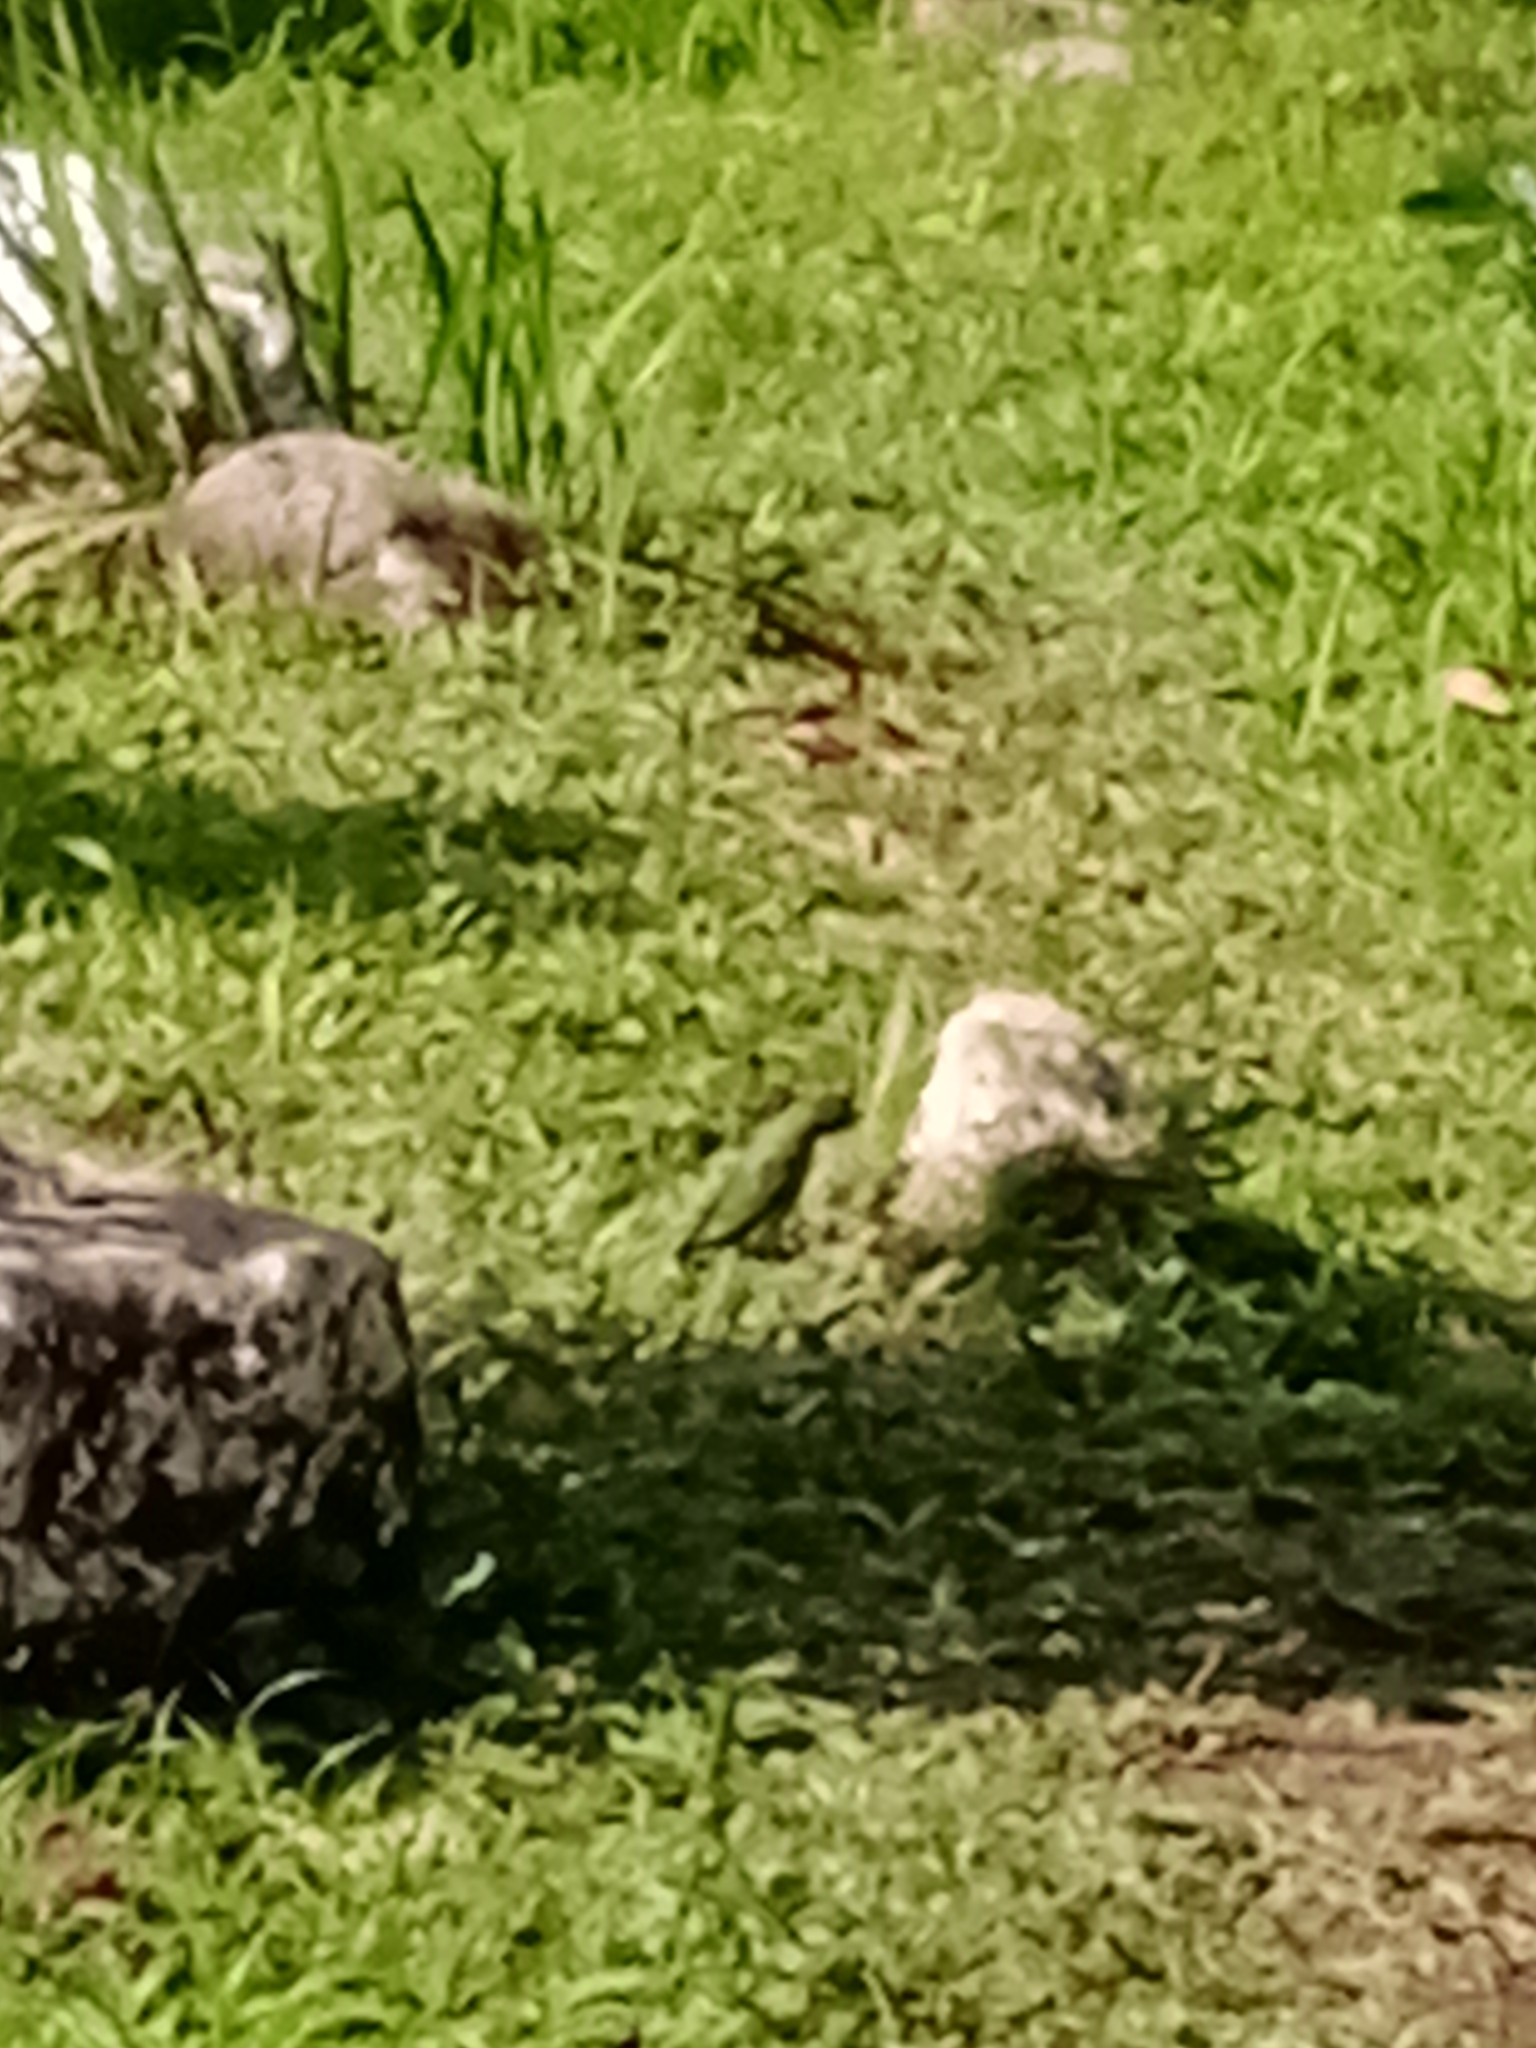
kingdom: Animalia
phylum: Chordata
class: Aves
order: Passeriformes
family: Thraupidae
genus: Tersina
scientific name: Tersina viridis
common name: Swallow tanager
